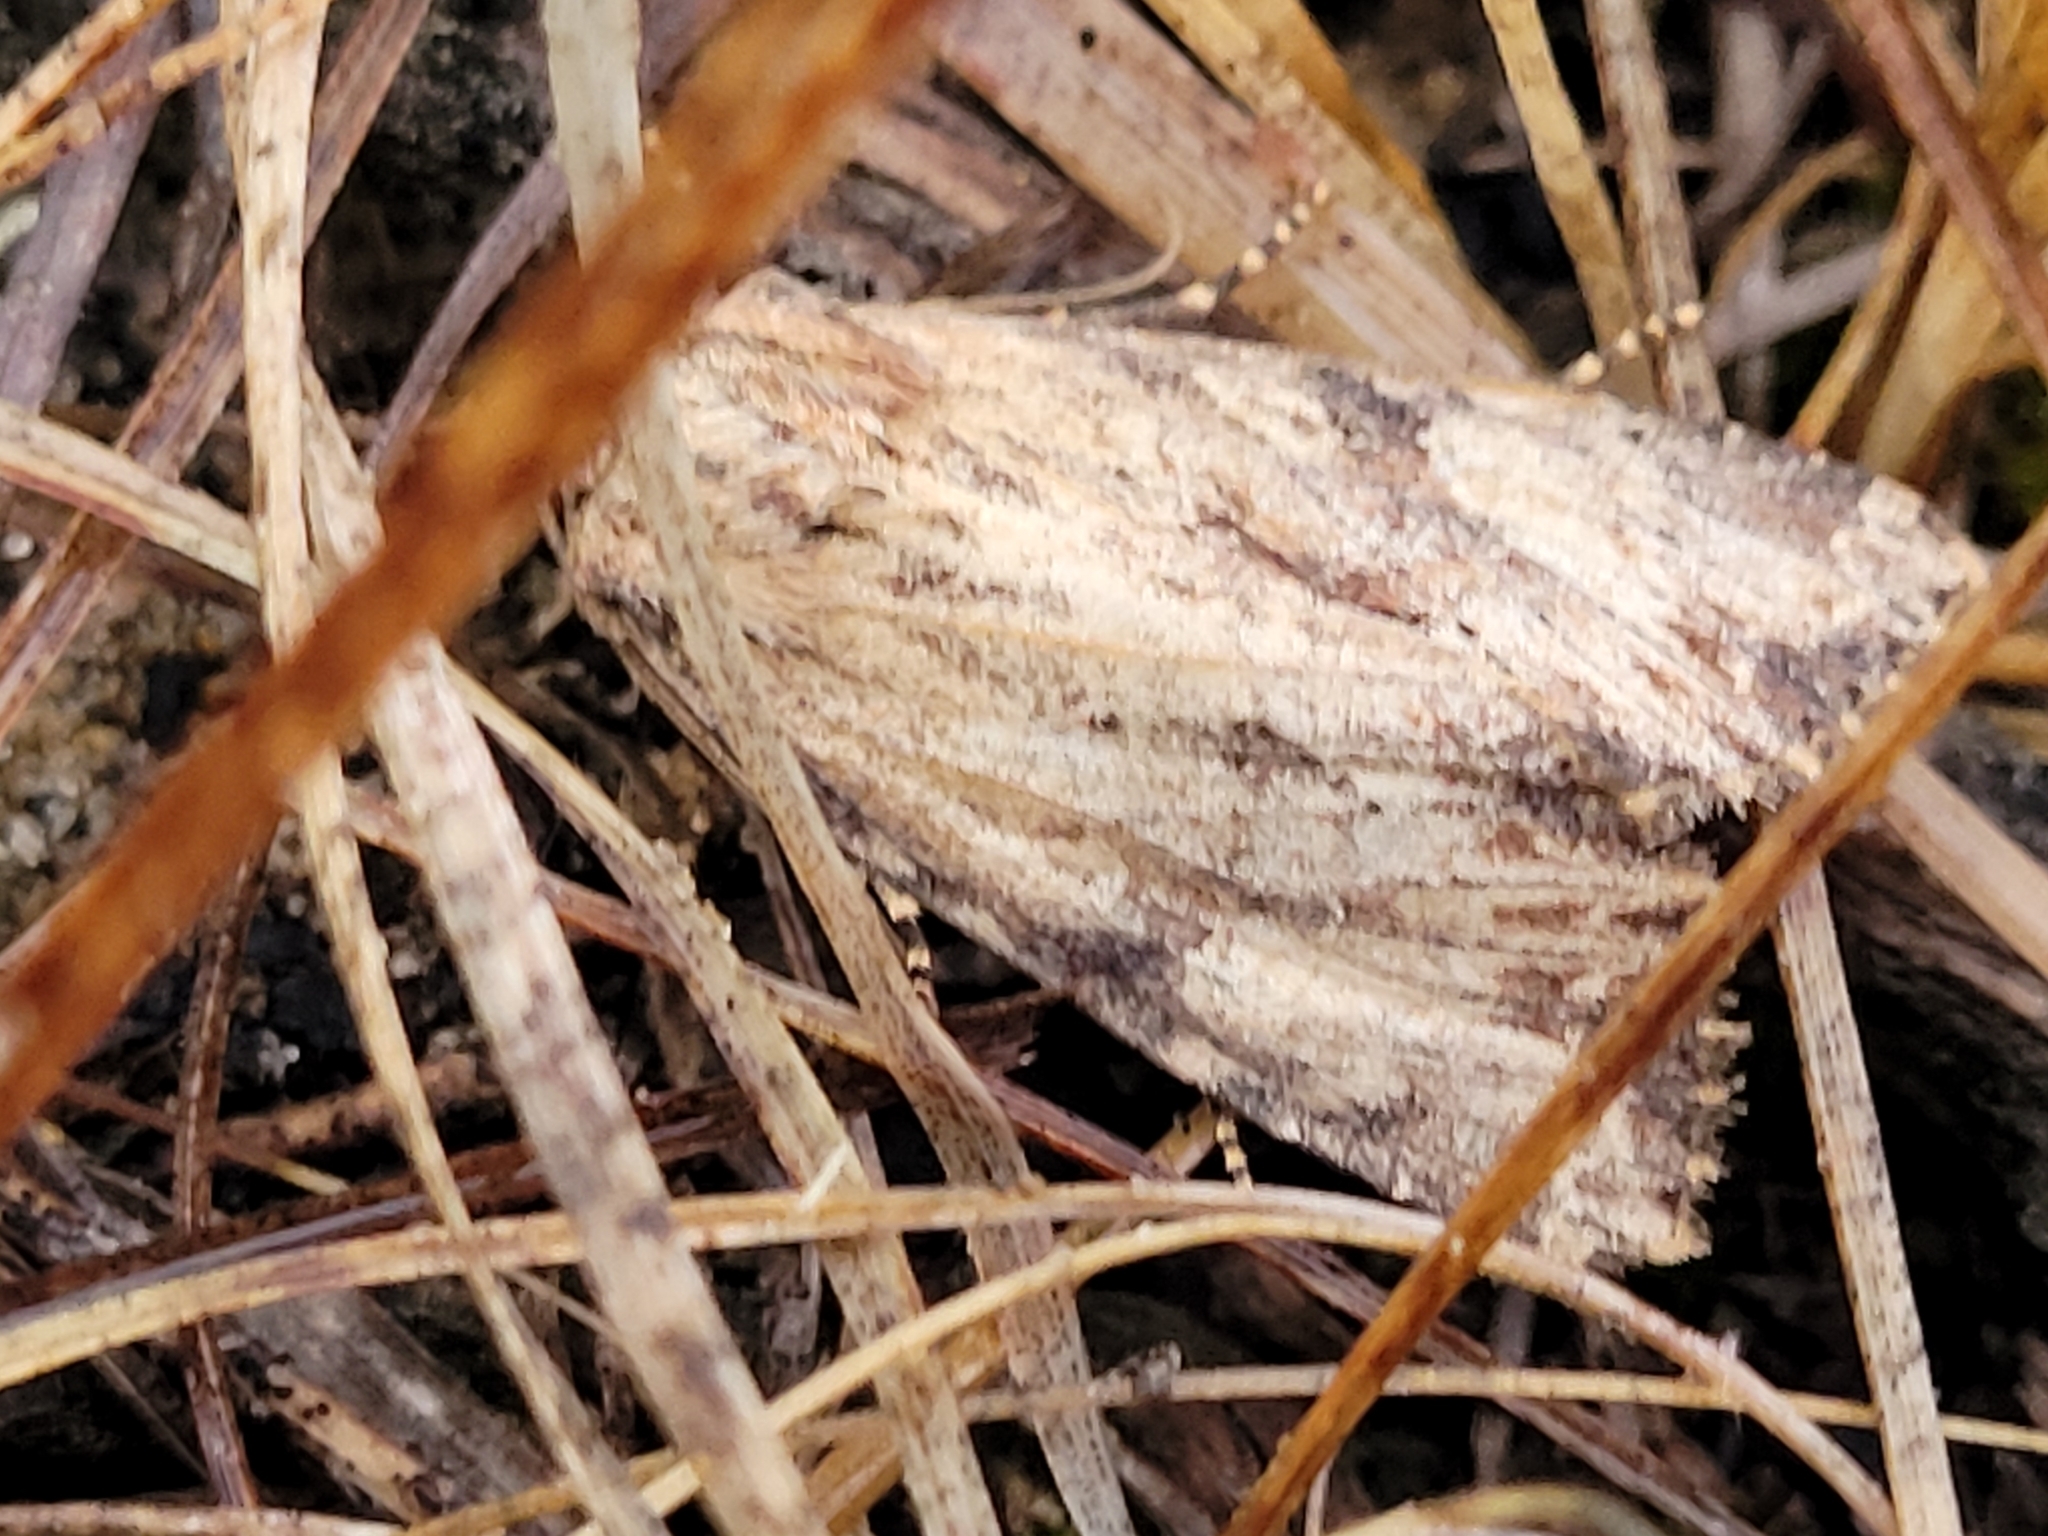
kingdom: Animalia
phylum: Arthropoda
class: Insecta
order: Lepidoptera
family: Noctuidae
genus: Apamea
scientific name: Apamea lignicolora
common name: Wood-colored apamea moth
